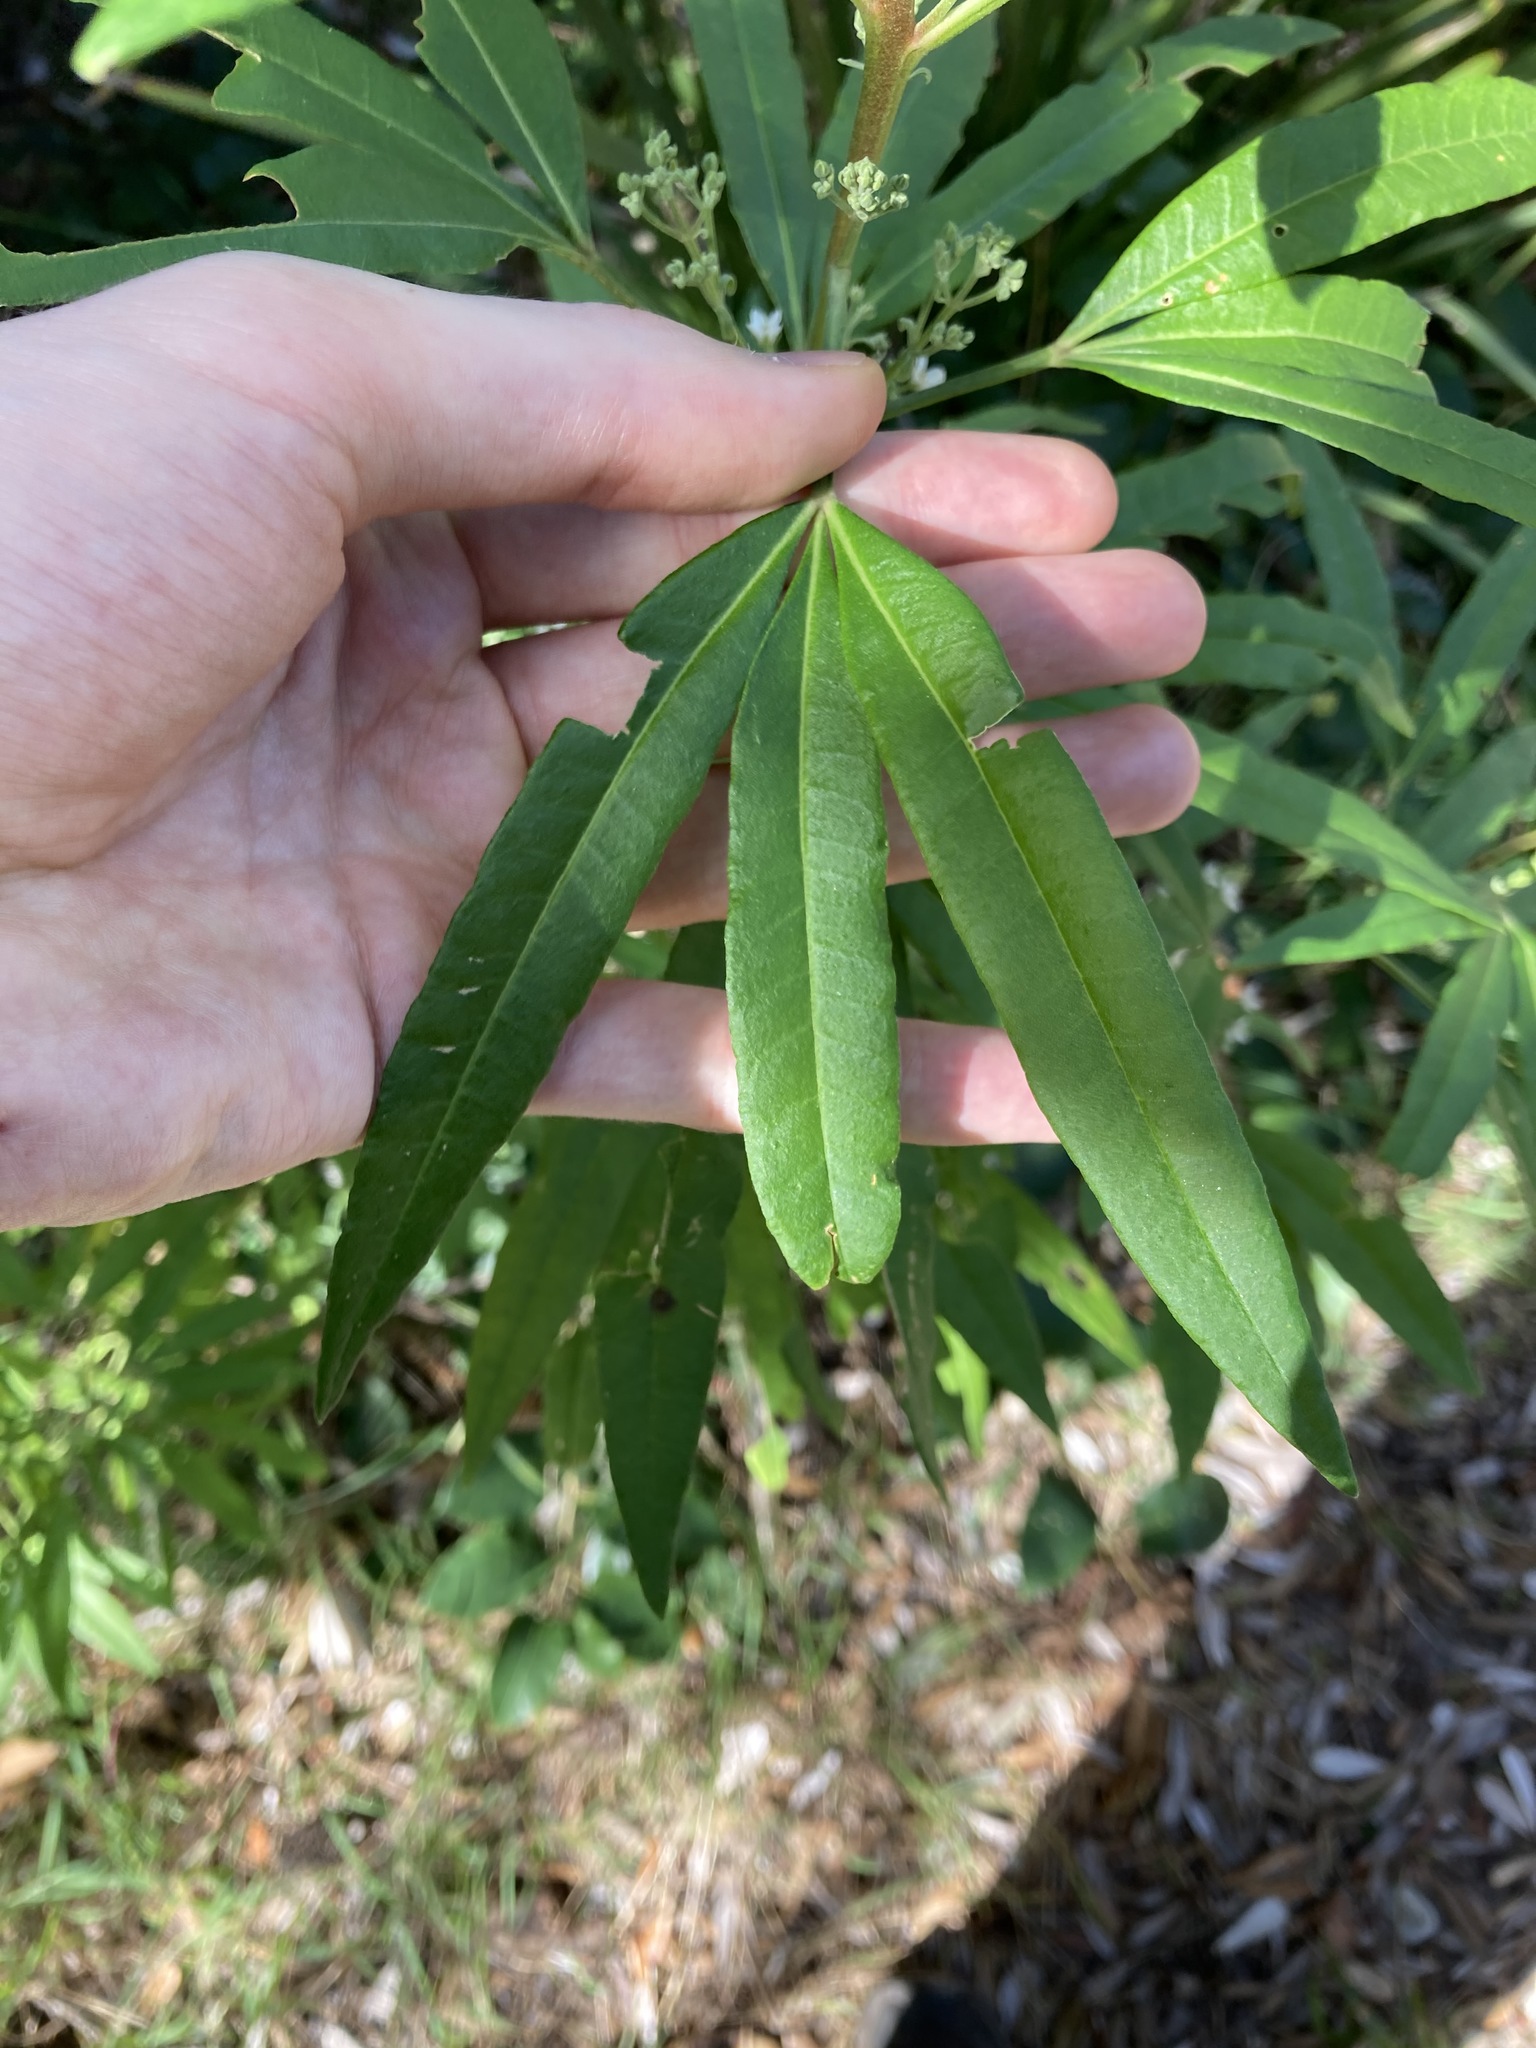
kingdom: Plantae
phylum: Tracheophyta
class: Magnoliopsida
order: Sapindales
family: Rutaceae
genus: Zieria
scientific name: Zieria arborescens
